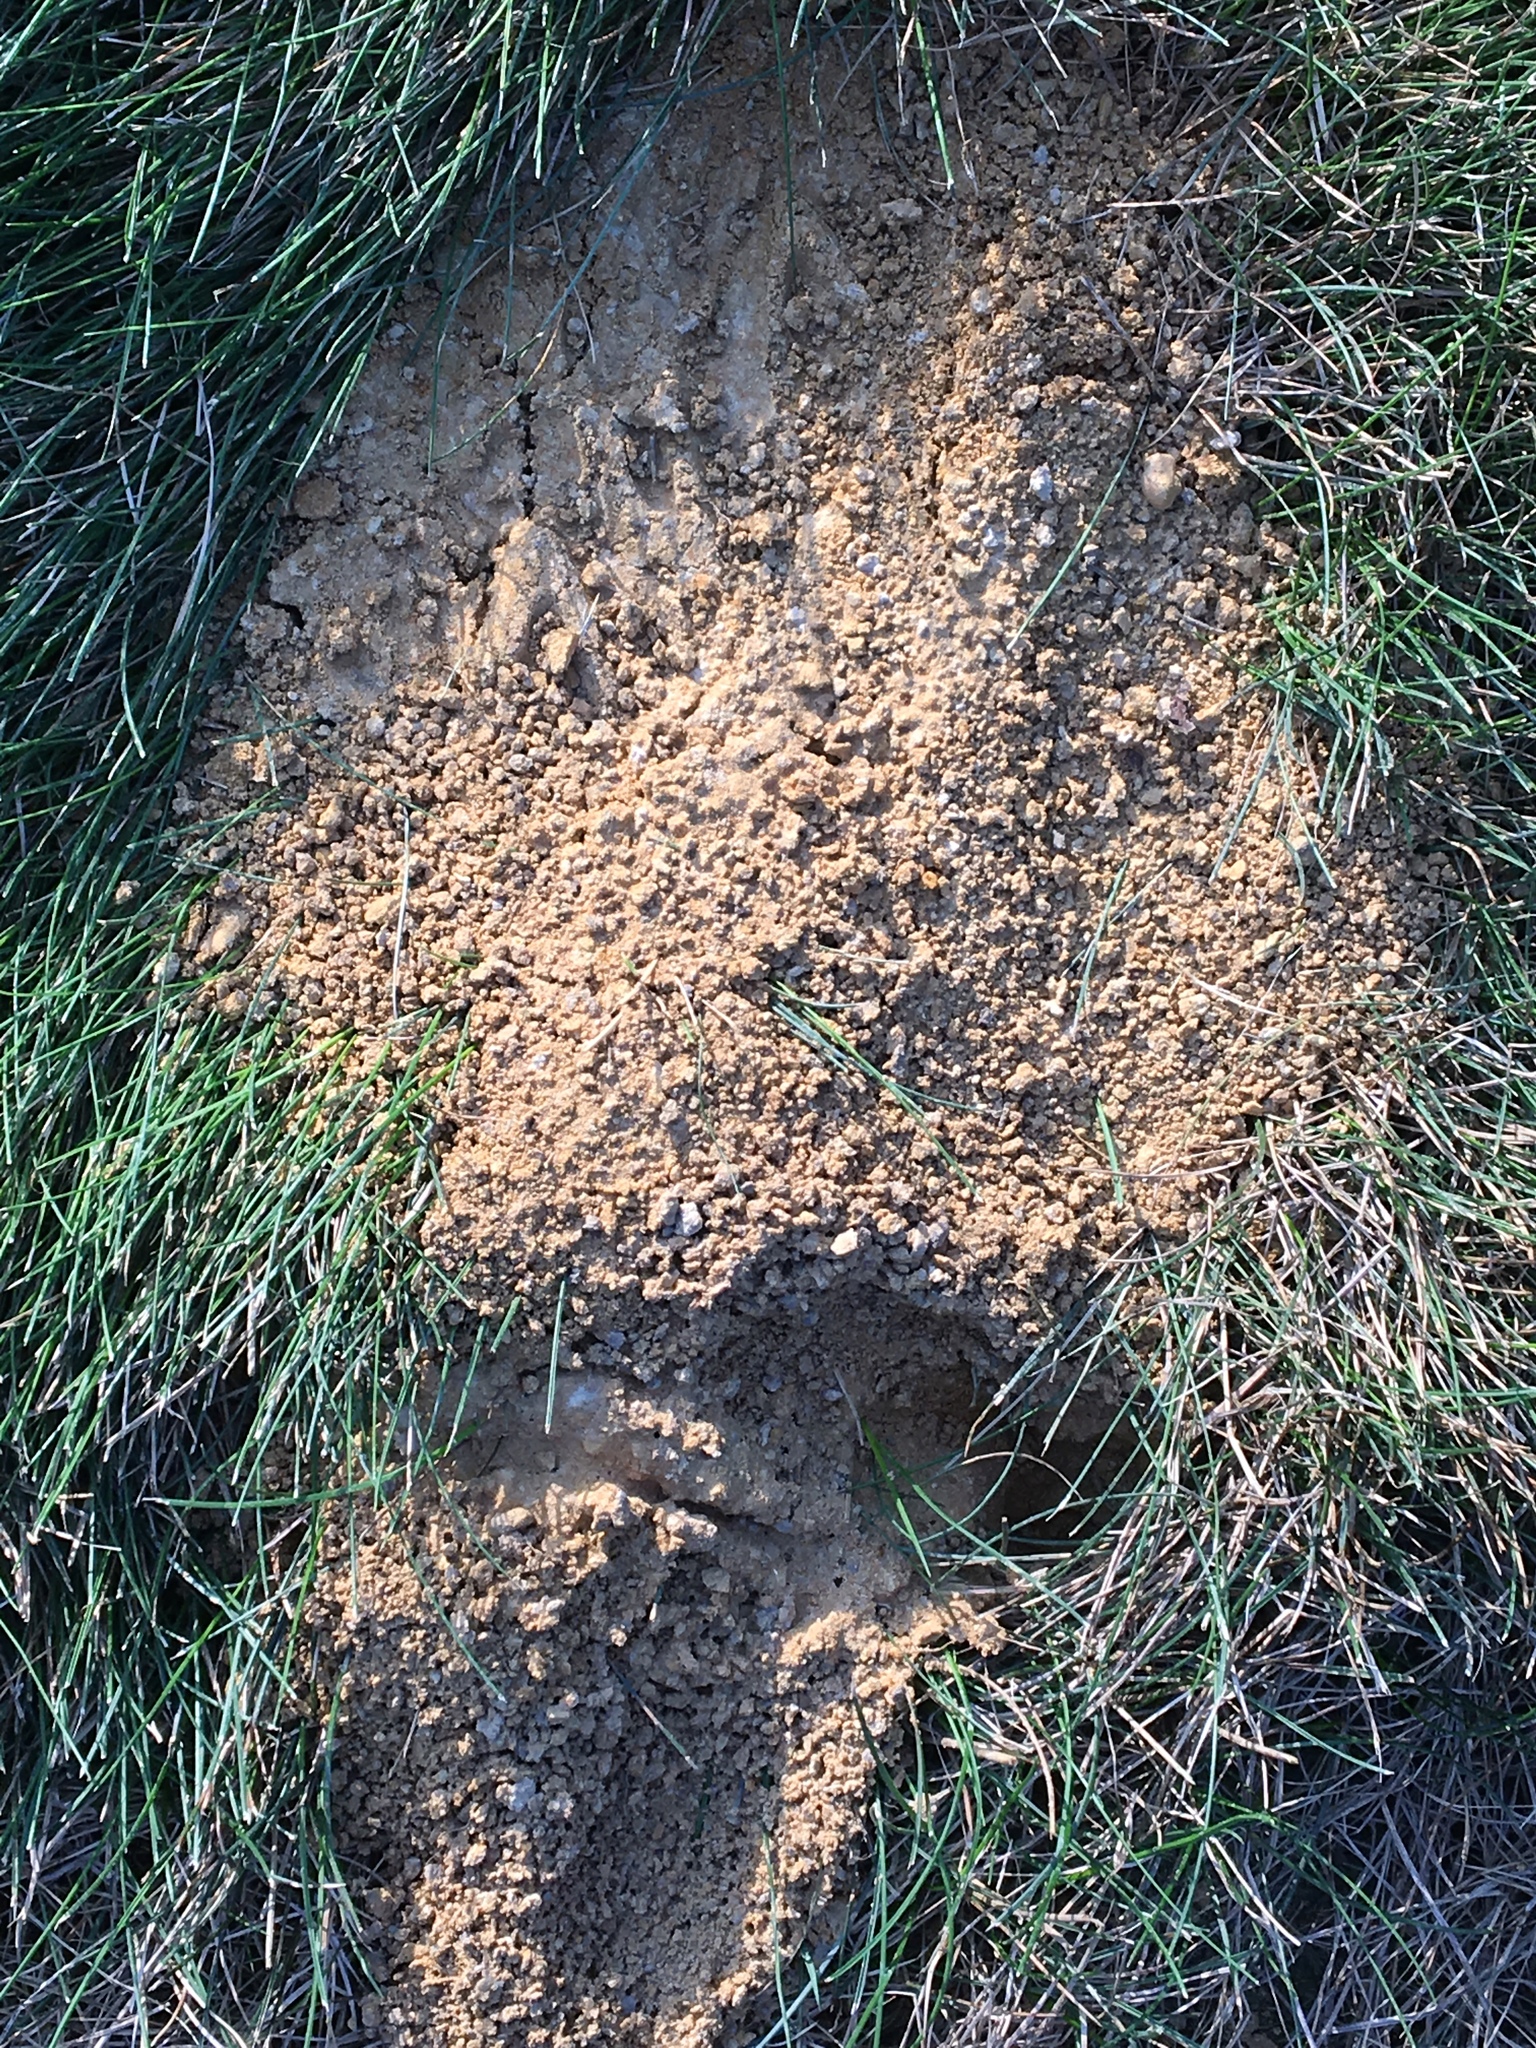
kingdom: Animalia
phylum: Arthropoda
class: Insecta
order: Hymenoptera
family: Crabronidae
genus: Sphecius
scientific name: Sphecius speciosus
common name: Cicada killer
